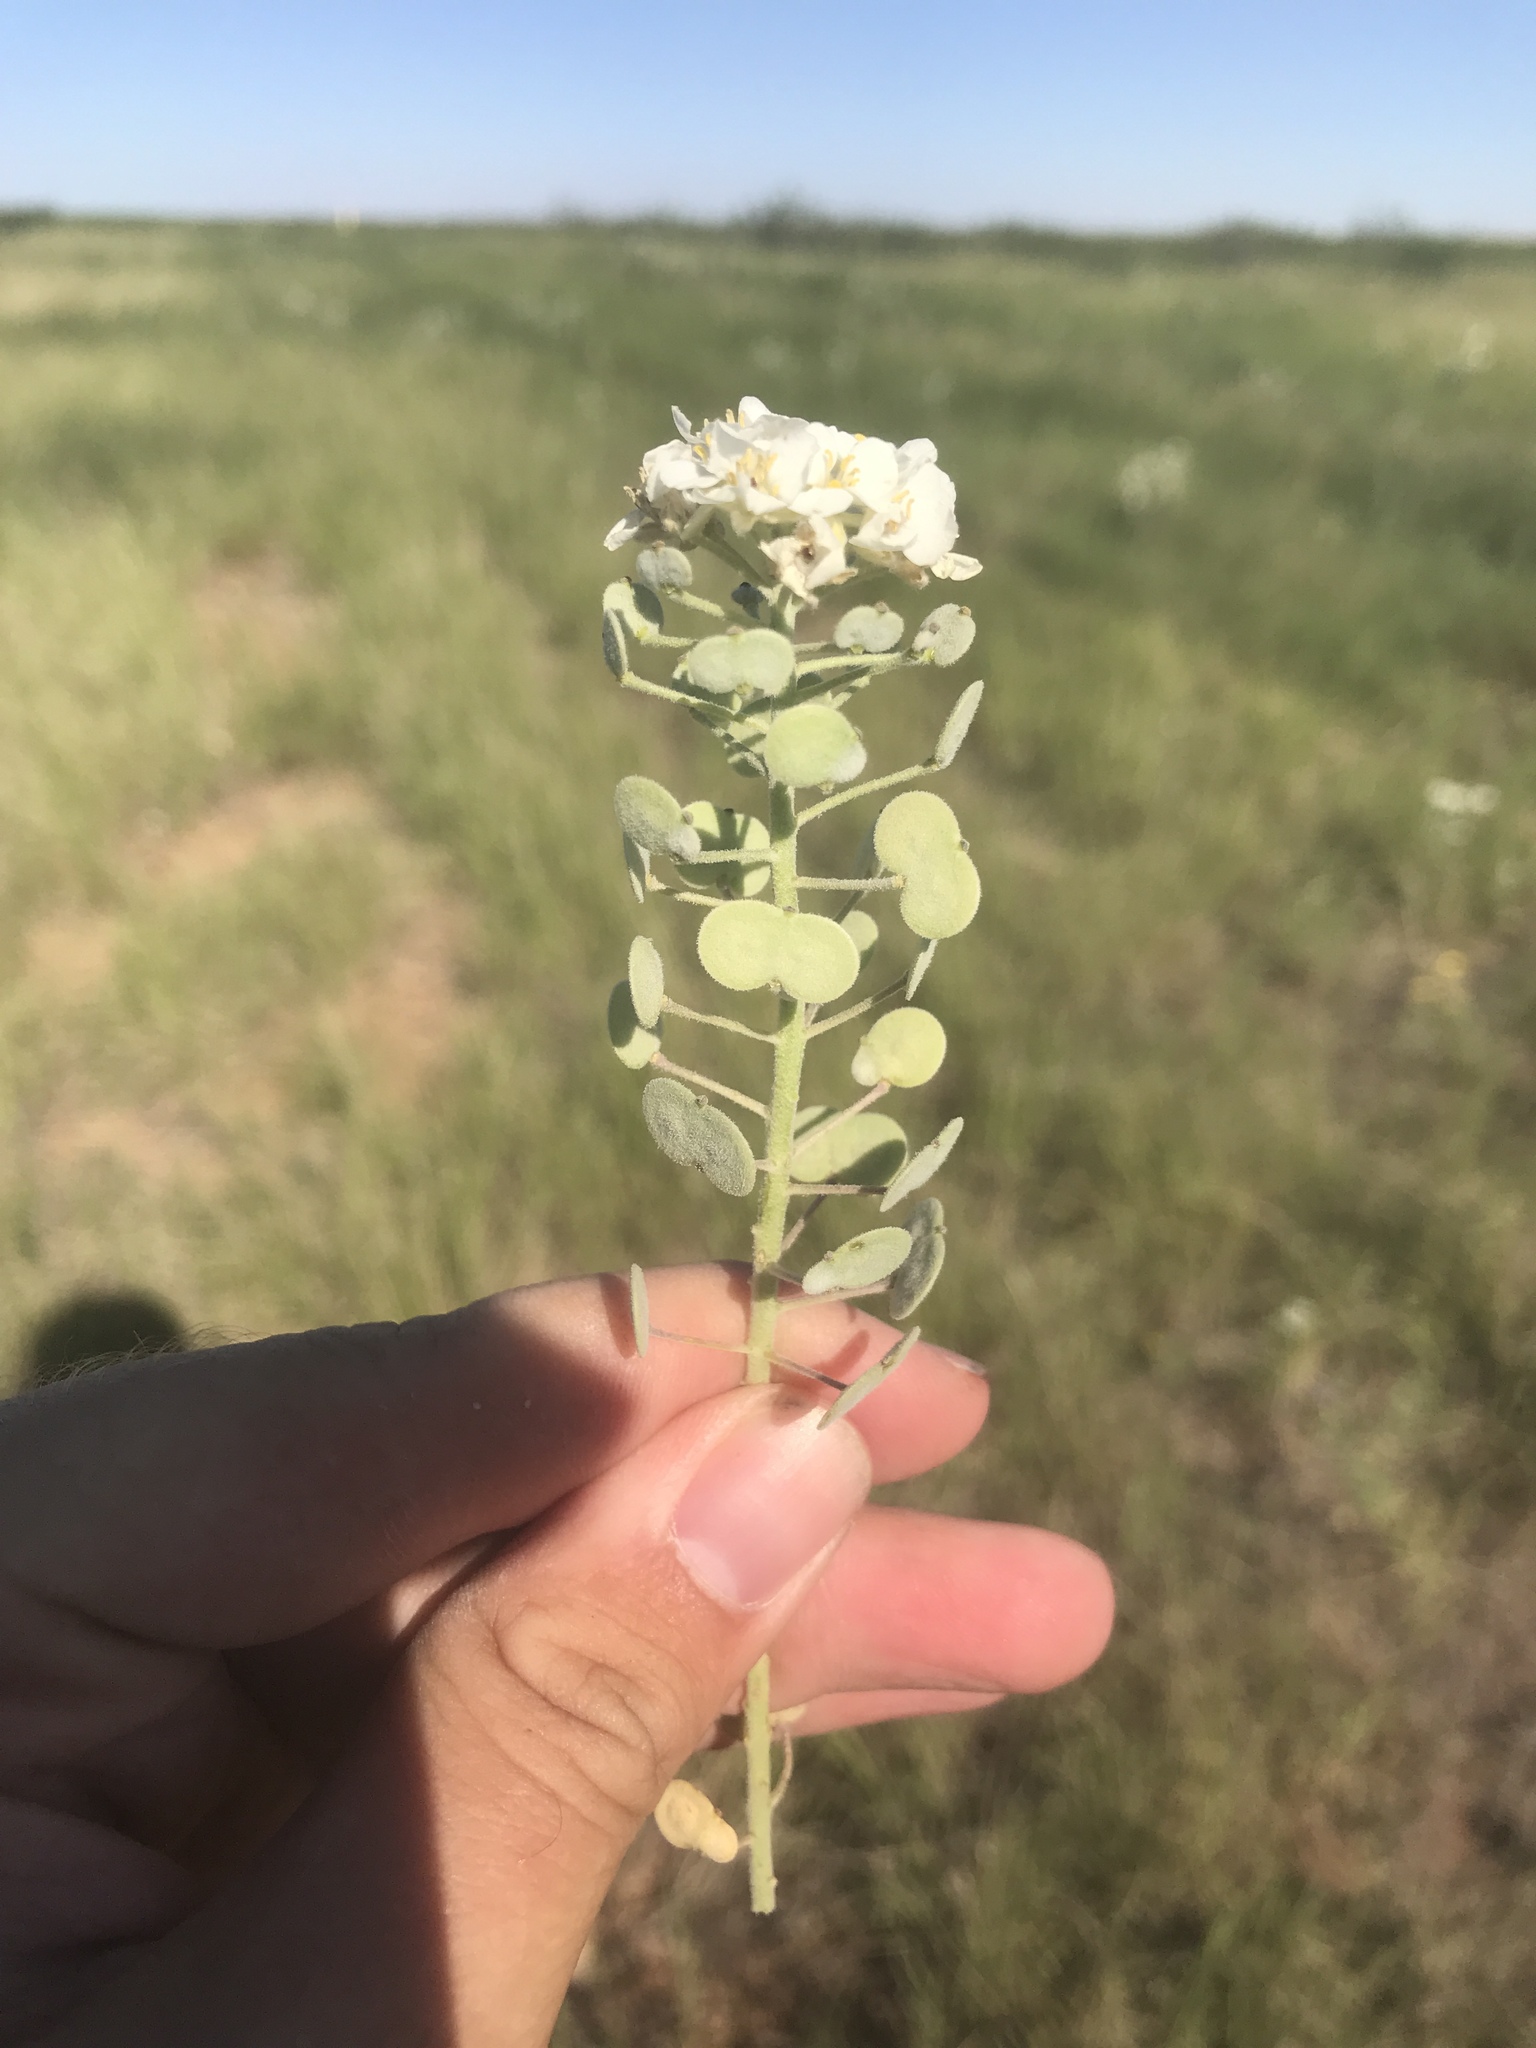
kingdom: Plantae
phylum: Tracheophyta
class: Magnoliopsida
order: Brassicales
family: Brassicaceae
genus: Dimorphocarpa
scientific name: Dimorphocarpa wislizenii
